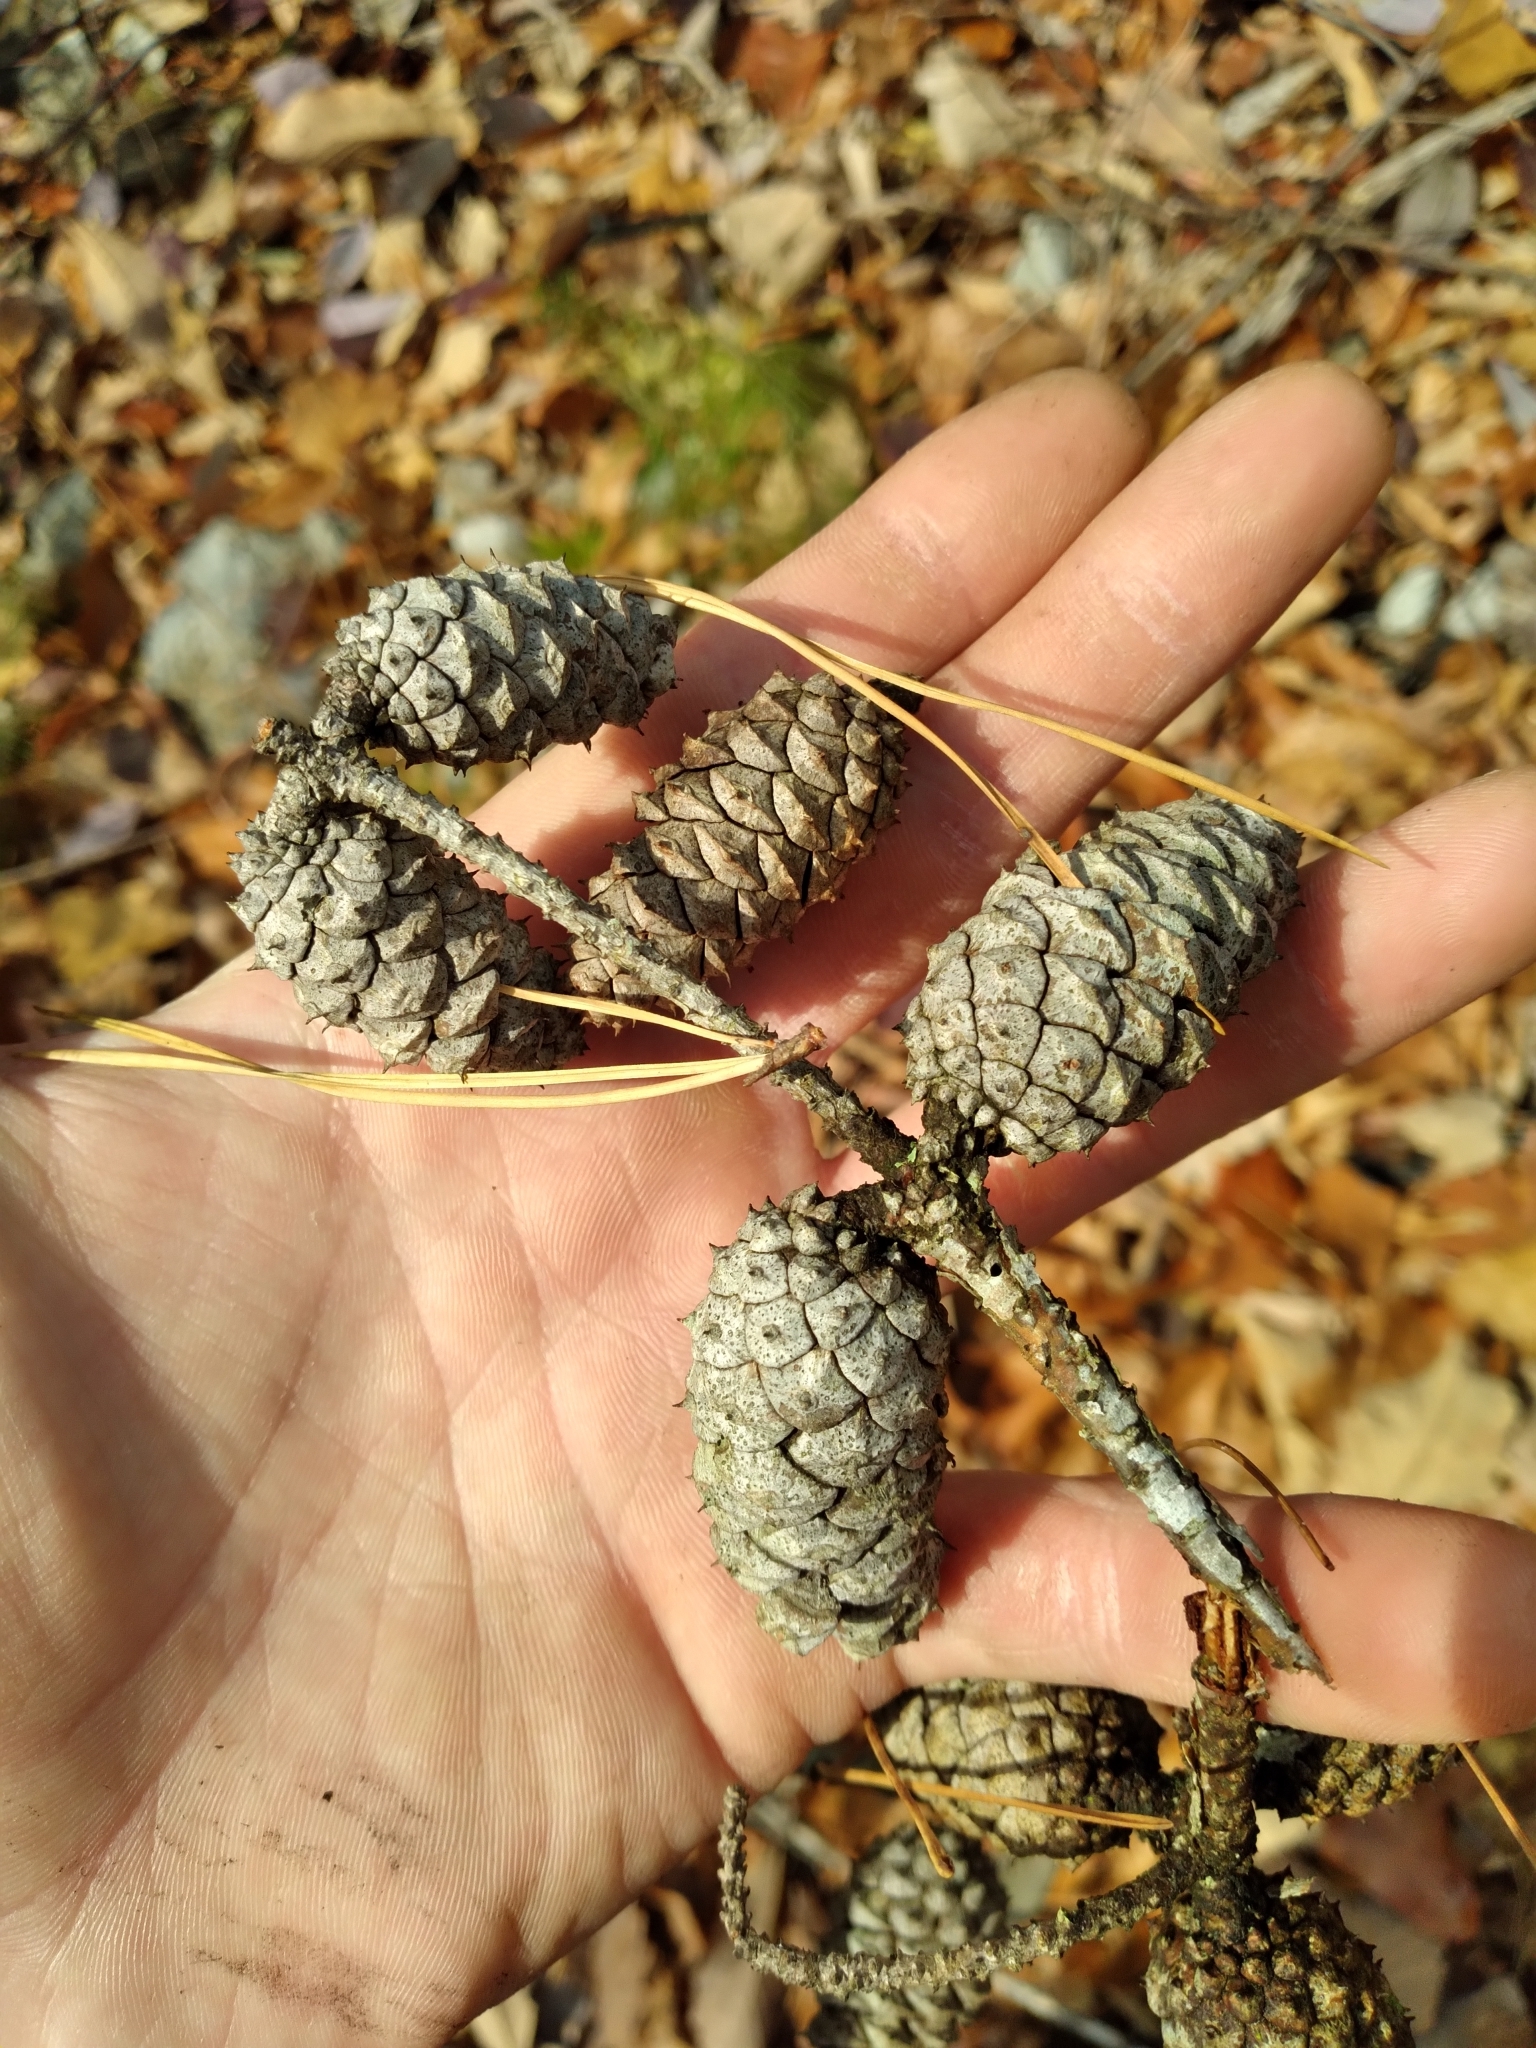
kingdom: Plantae
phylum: Tracheophyta
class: Pinopsida
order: Pinales
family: Pinaceae
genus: Pinus
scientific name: Pinus echinata
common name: Shortleaf pine
